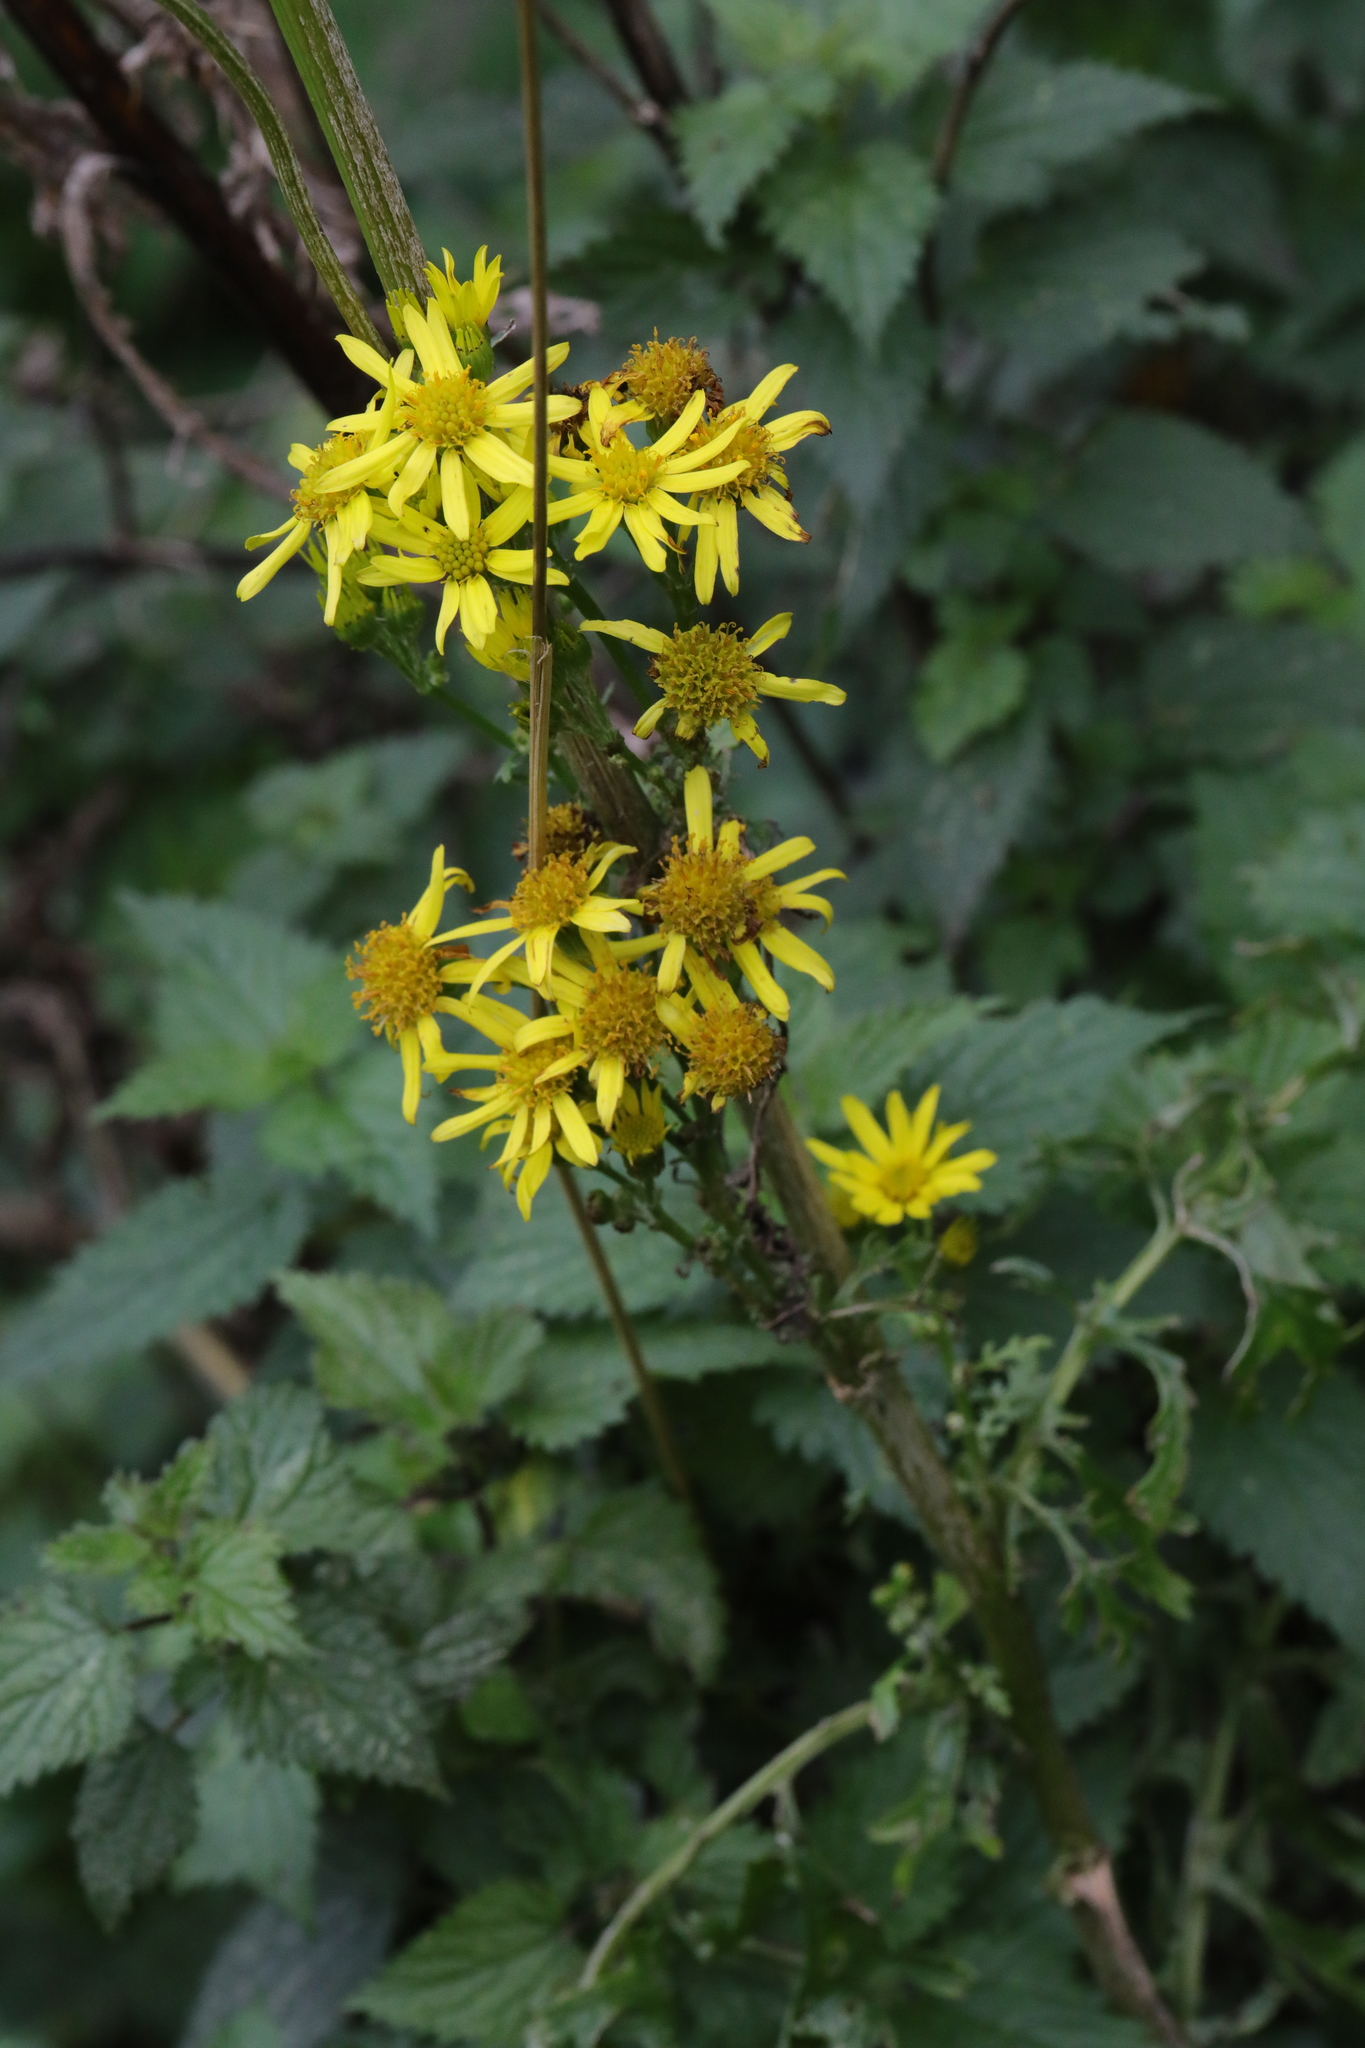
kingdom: Plantae
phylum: Tracheophyta
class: Magnoliopsida
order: Asterales
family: Asteraceae
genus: Jacobaea
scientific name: Jacobaea vulgaris
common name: Stinking willie
